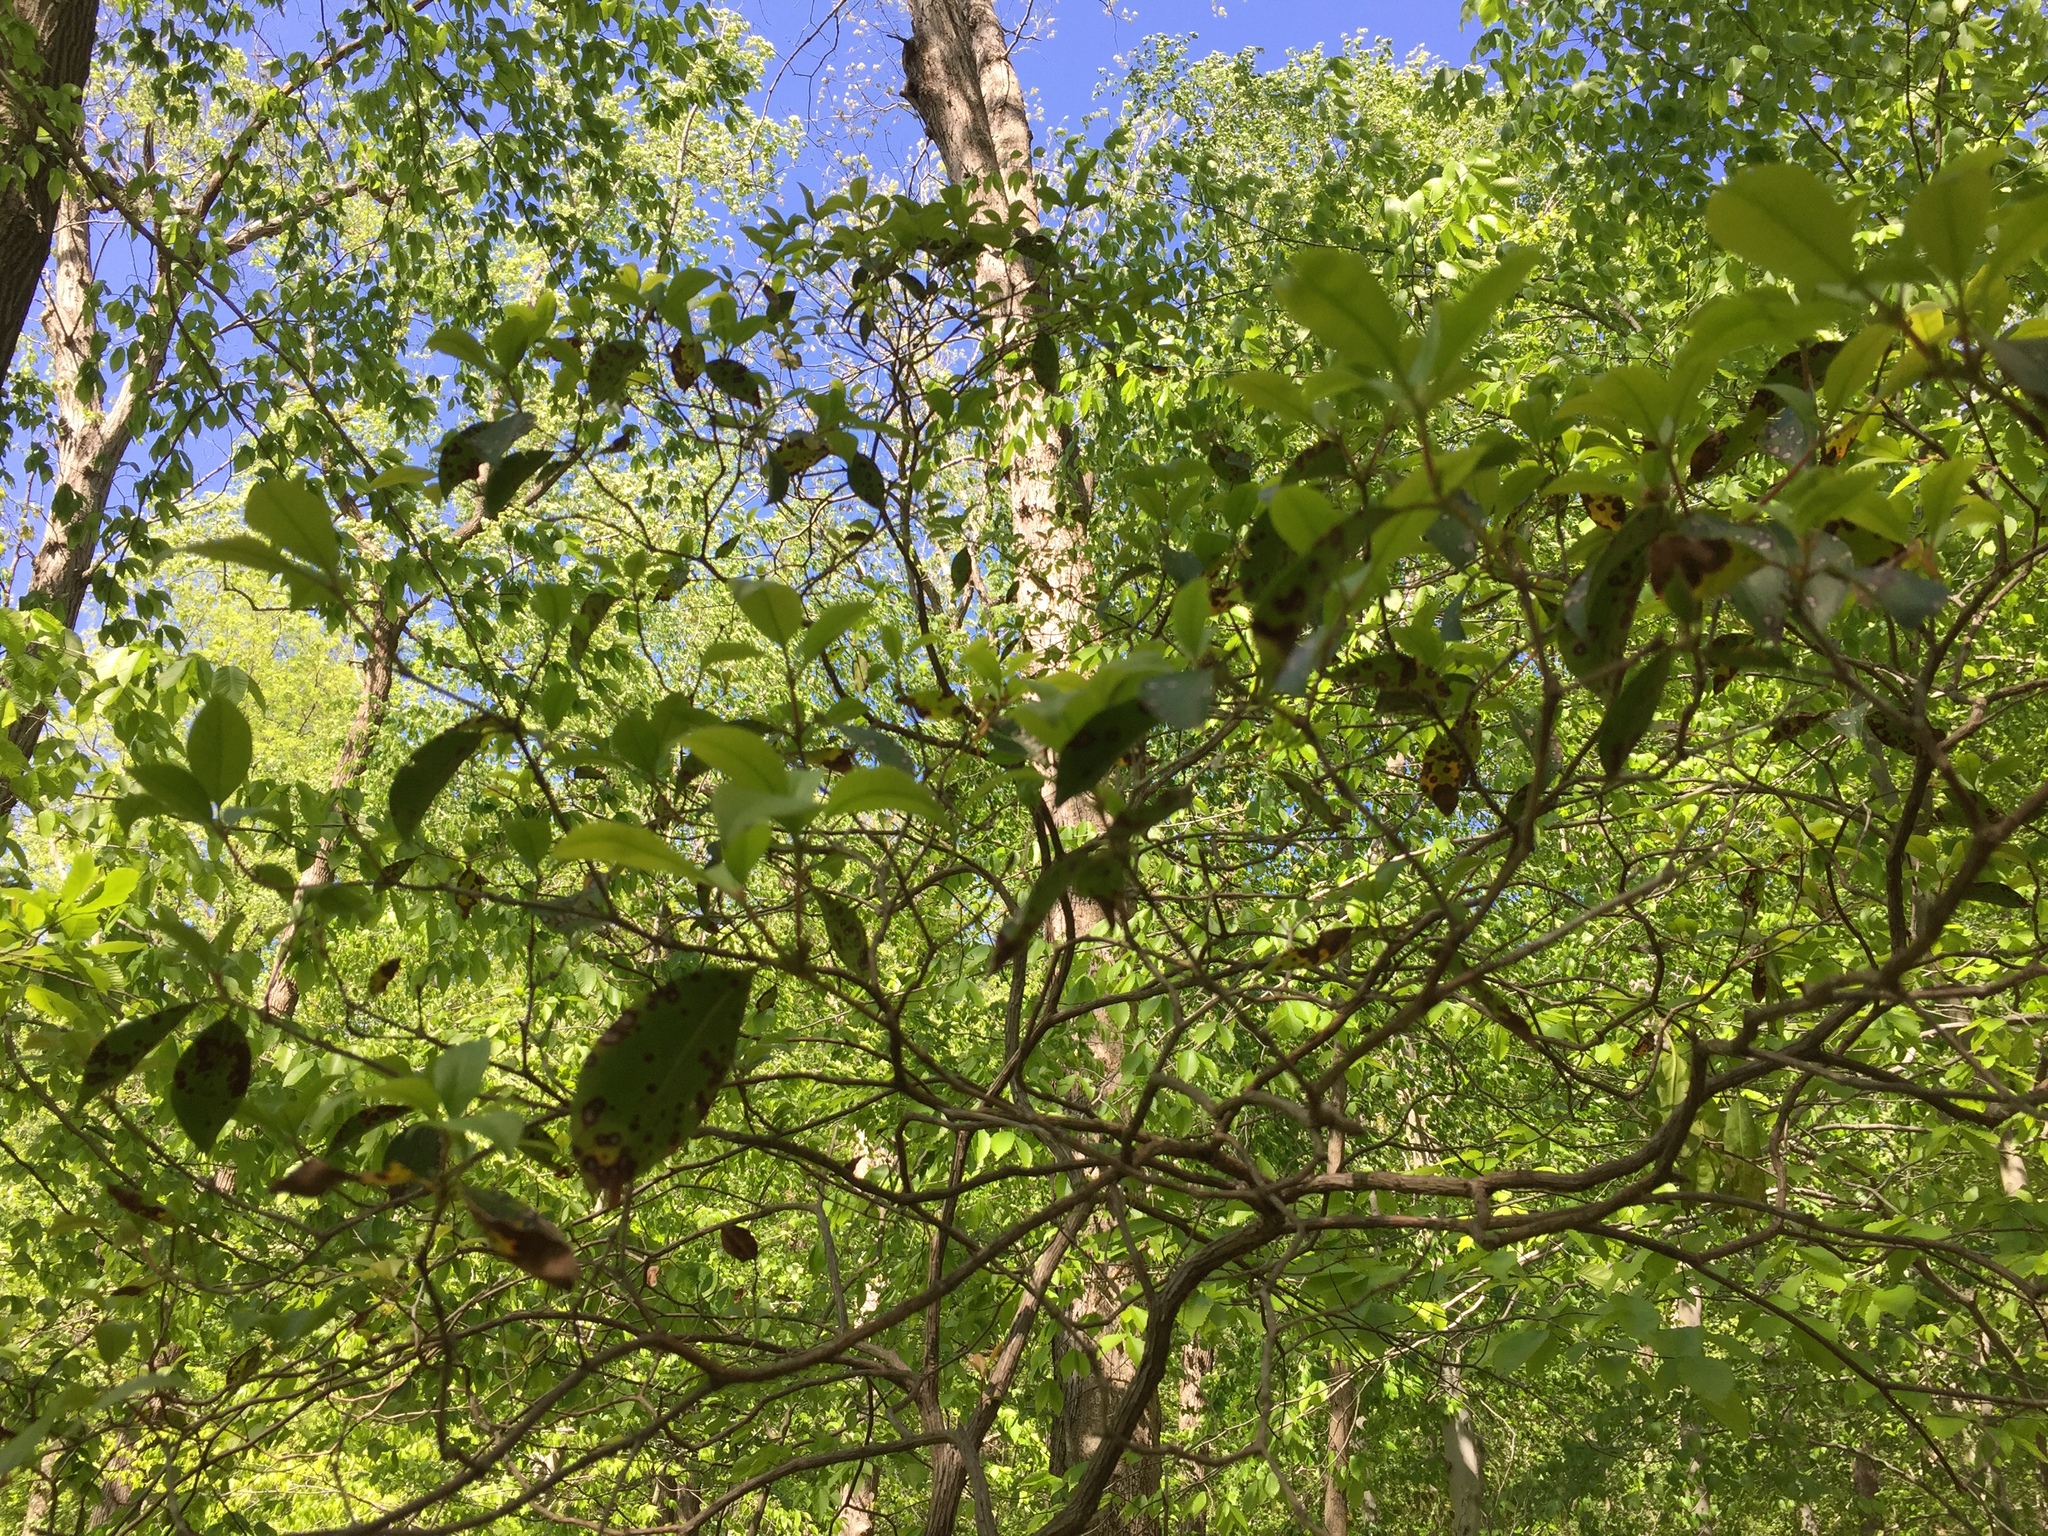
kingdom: Plantae
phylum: Tracheophyta
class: Magnoliopsida
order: Ericales
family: Ericaceae
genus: Kalmia
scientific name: Kalmia latifolia
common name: Mountain-laurel
